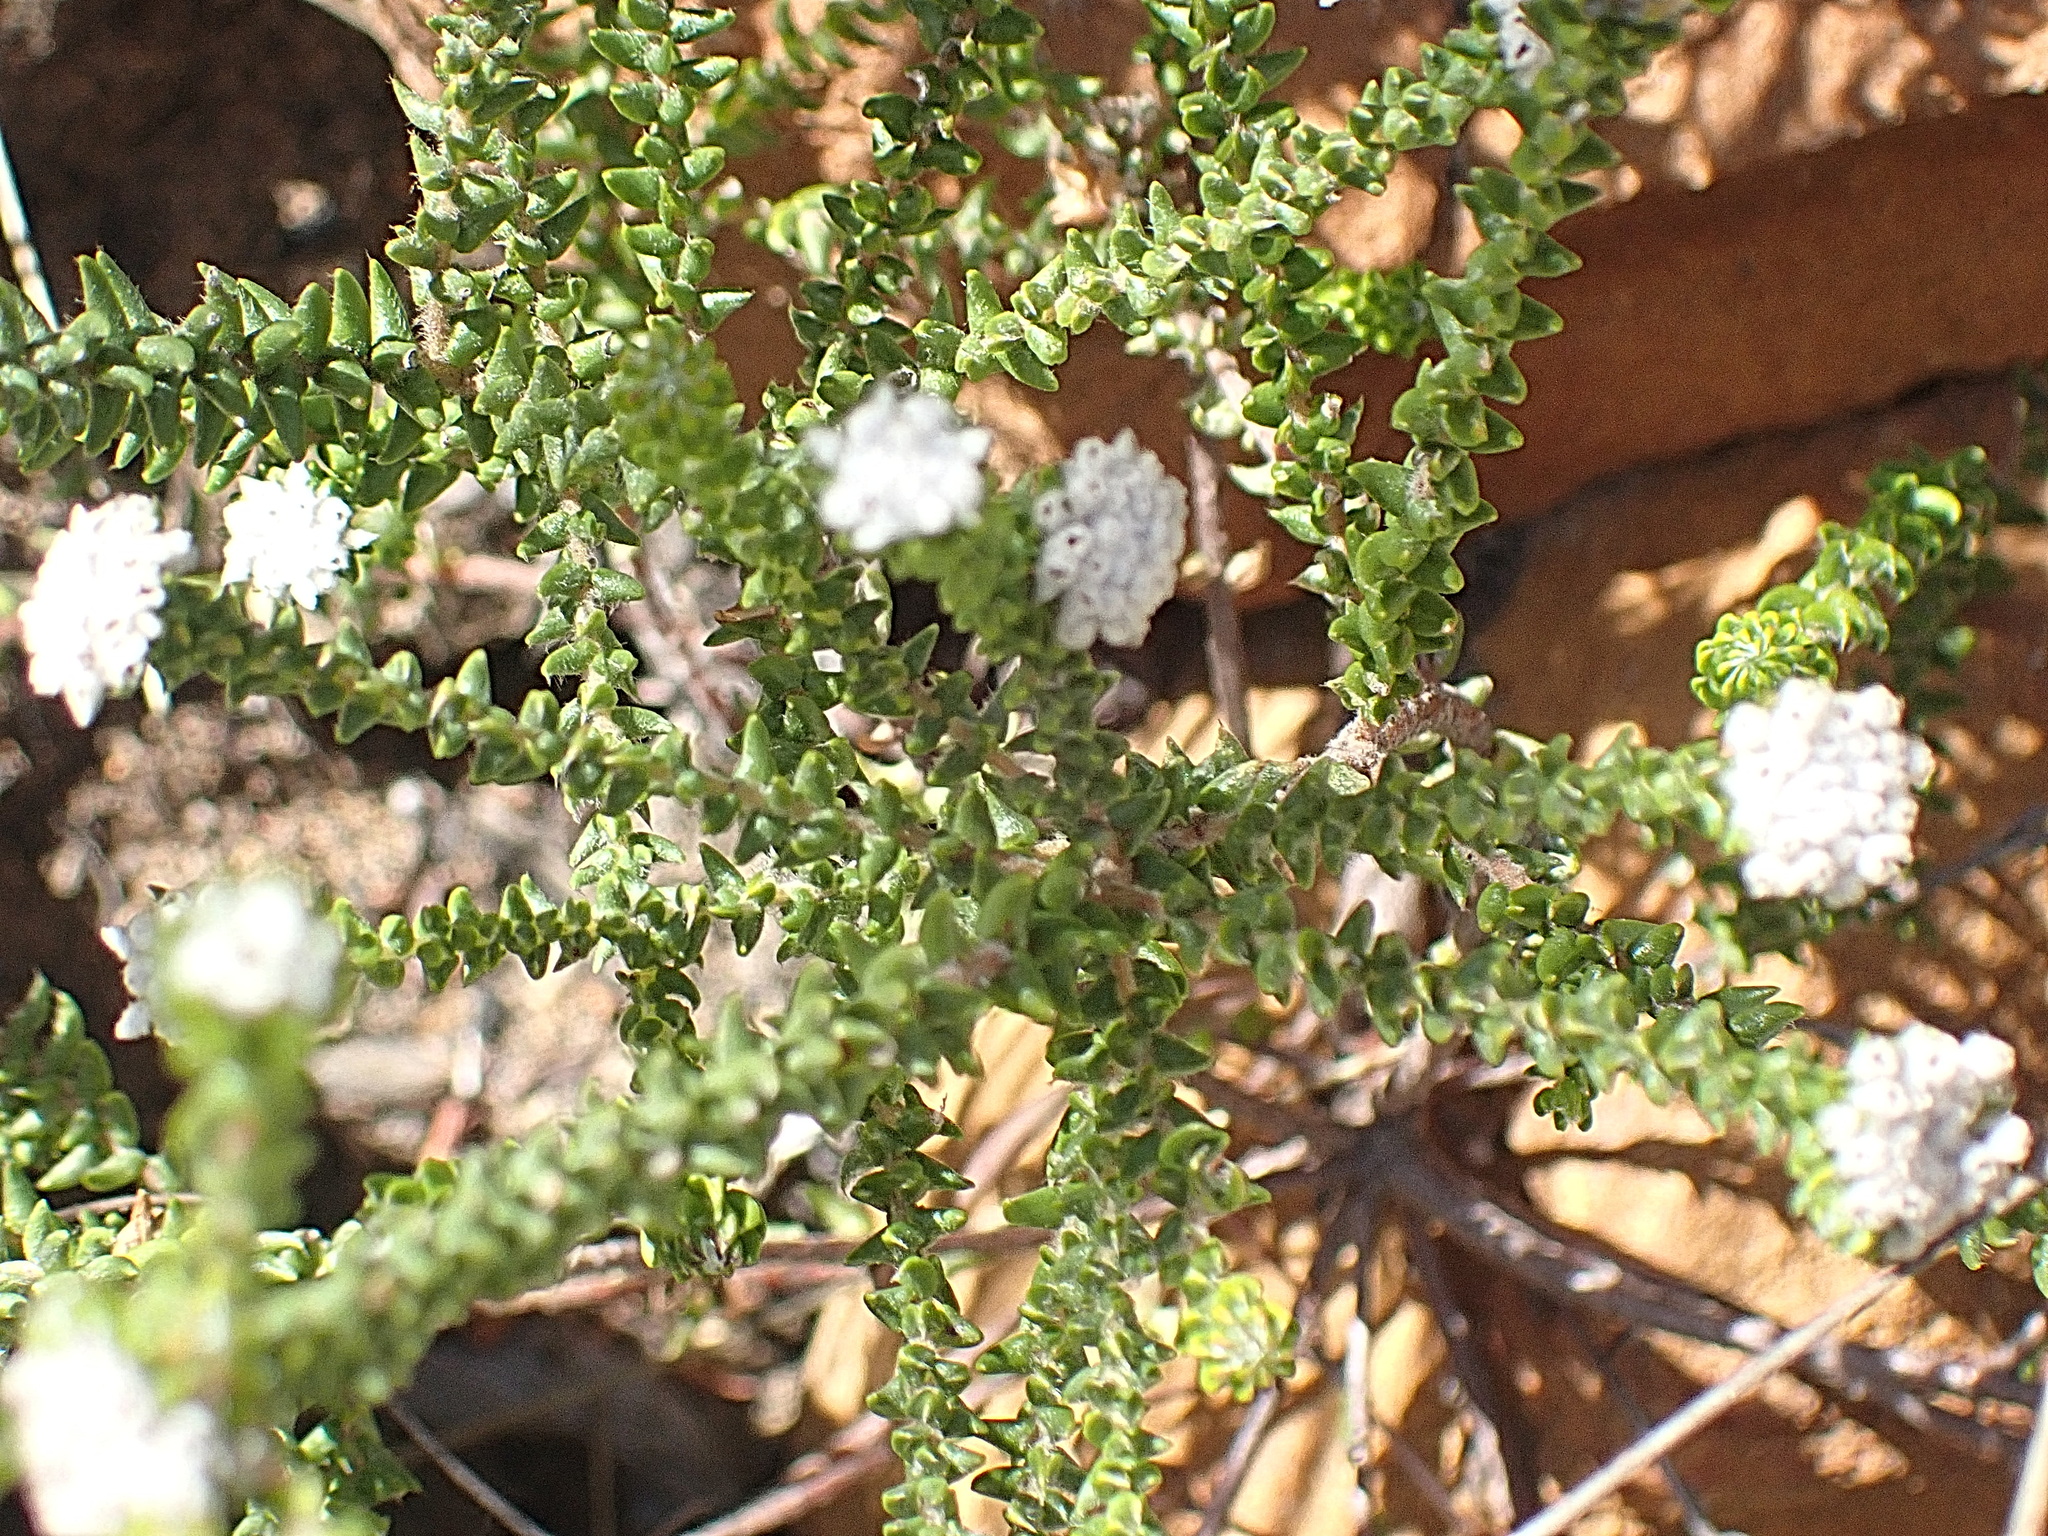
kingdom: Plantae
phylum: Tracheophyta
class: Magnoliopsida
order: Rosales
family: Rhamnaceae
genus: Phylica
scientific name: Phylica debilis
